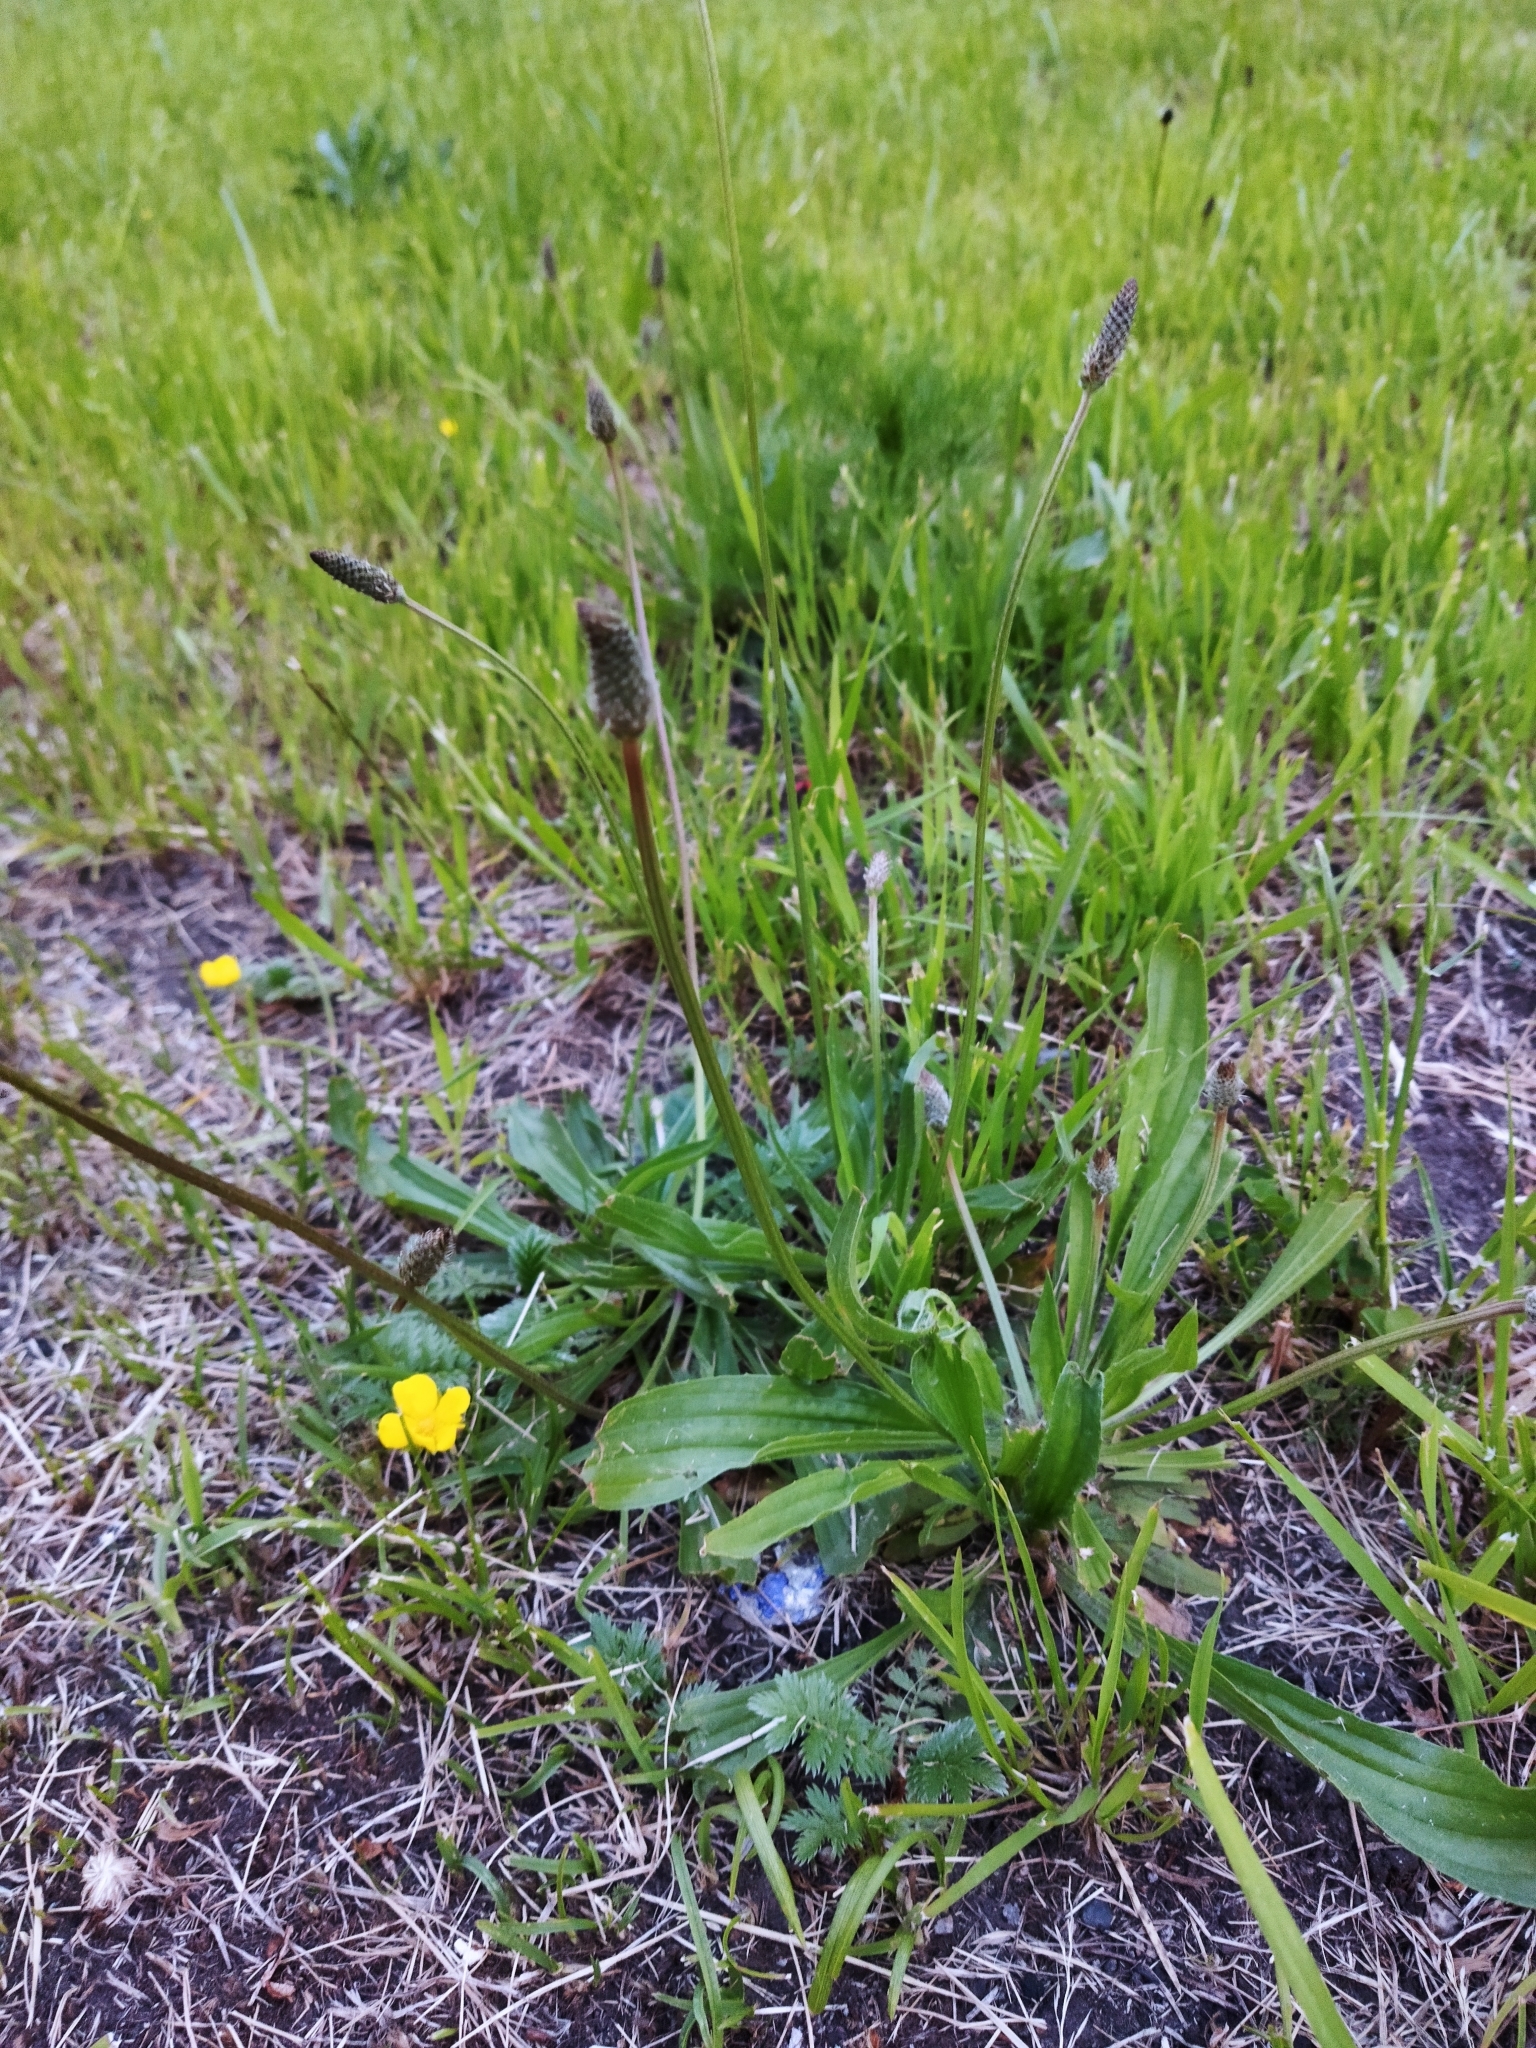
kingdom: Plantae
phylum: Tracheophyta
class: Magnoliopsida
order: Lamiales
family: Plantaginaceae
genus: Plantago
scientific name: Plantago lanceolata
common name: Ribwort plantain
